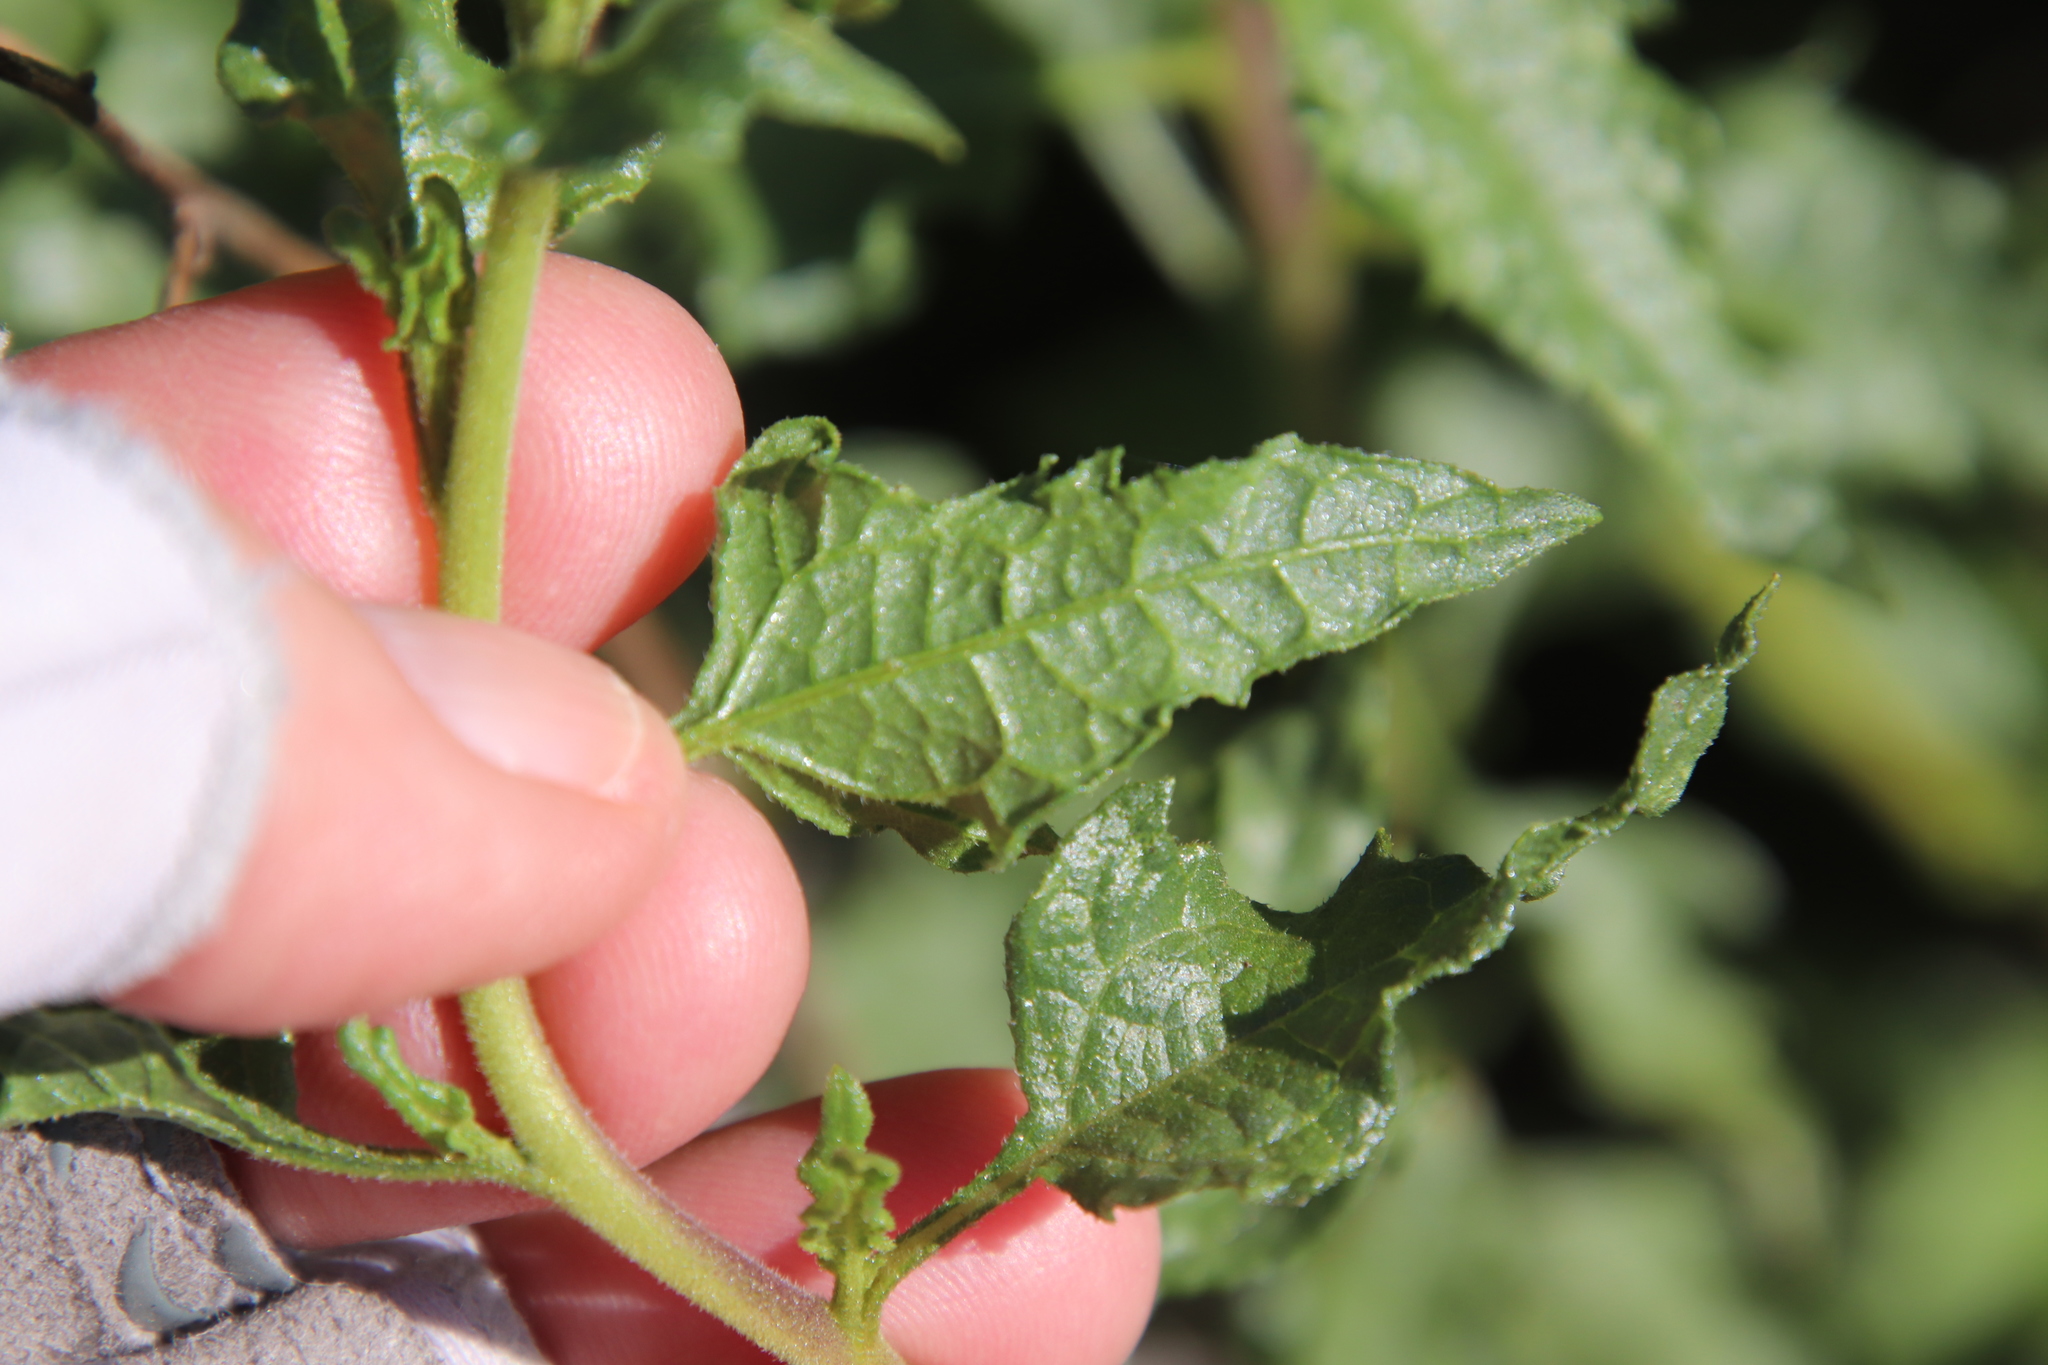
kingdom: Plantae
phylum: Tracheophyta
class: Magnoliopsida
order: Asterales
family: Asteraceae
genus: Bahiopsis
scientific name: Bahiopsis laciniata
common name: San diego county viguiera
